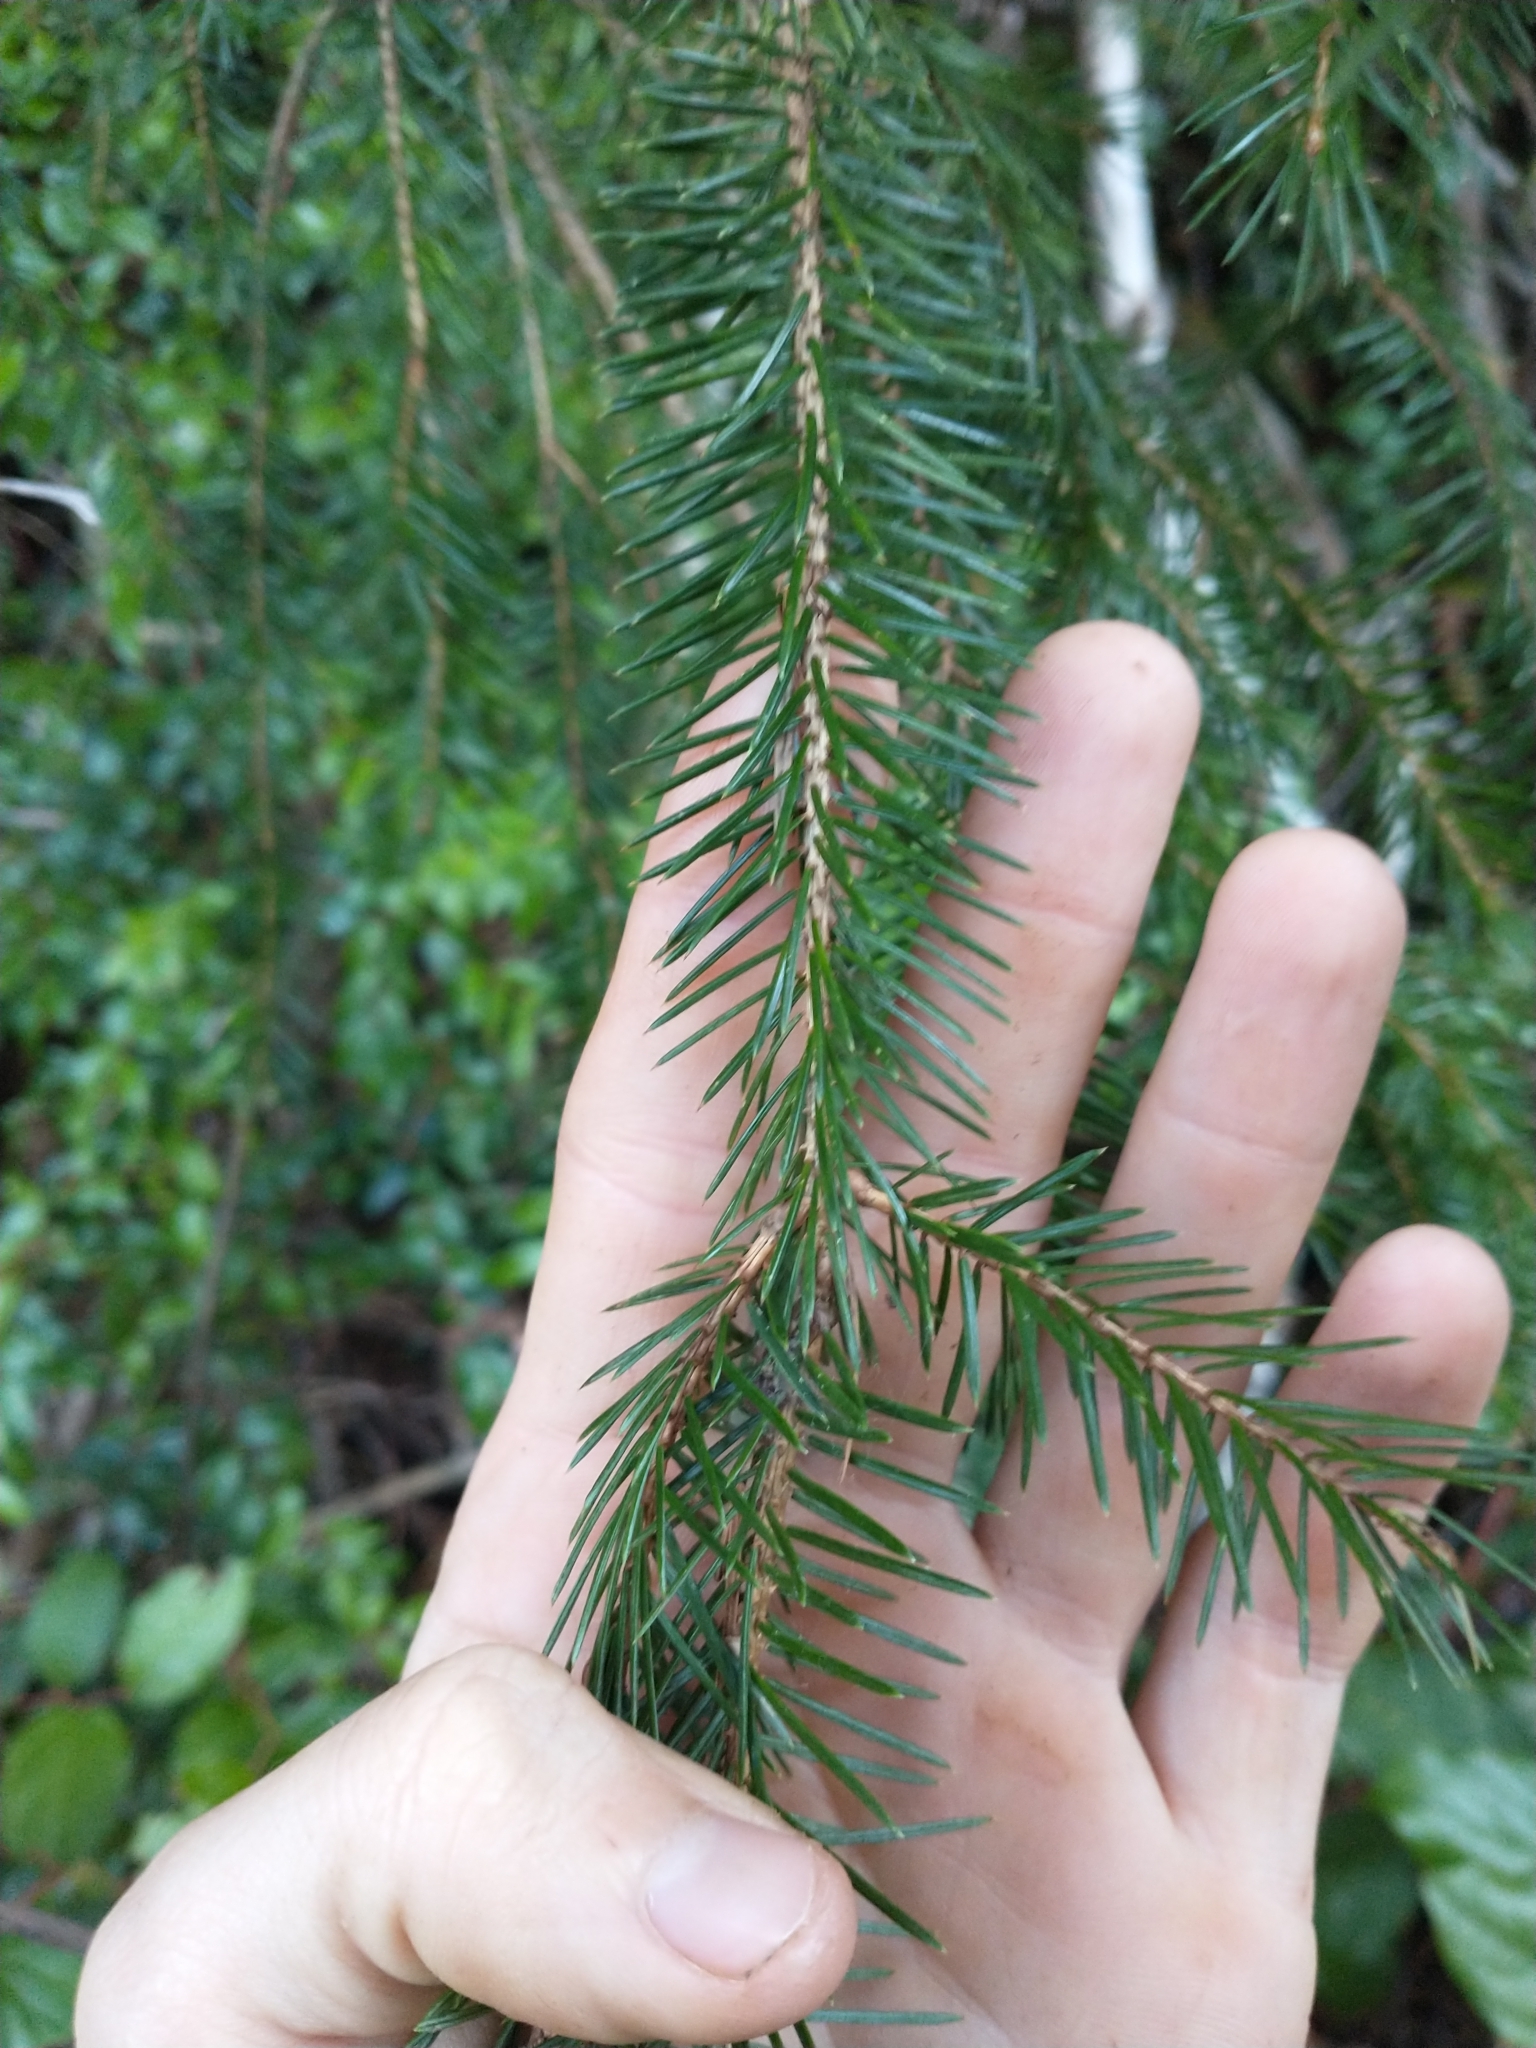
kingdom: Plantae
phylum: Tracheophyta
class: Pinopsida
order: Pinales
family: Pinaceae
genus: Picea
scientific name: Picea sitchensis
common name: Sitka spruce
